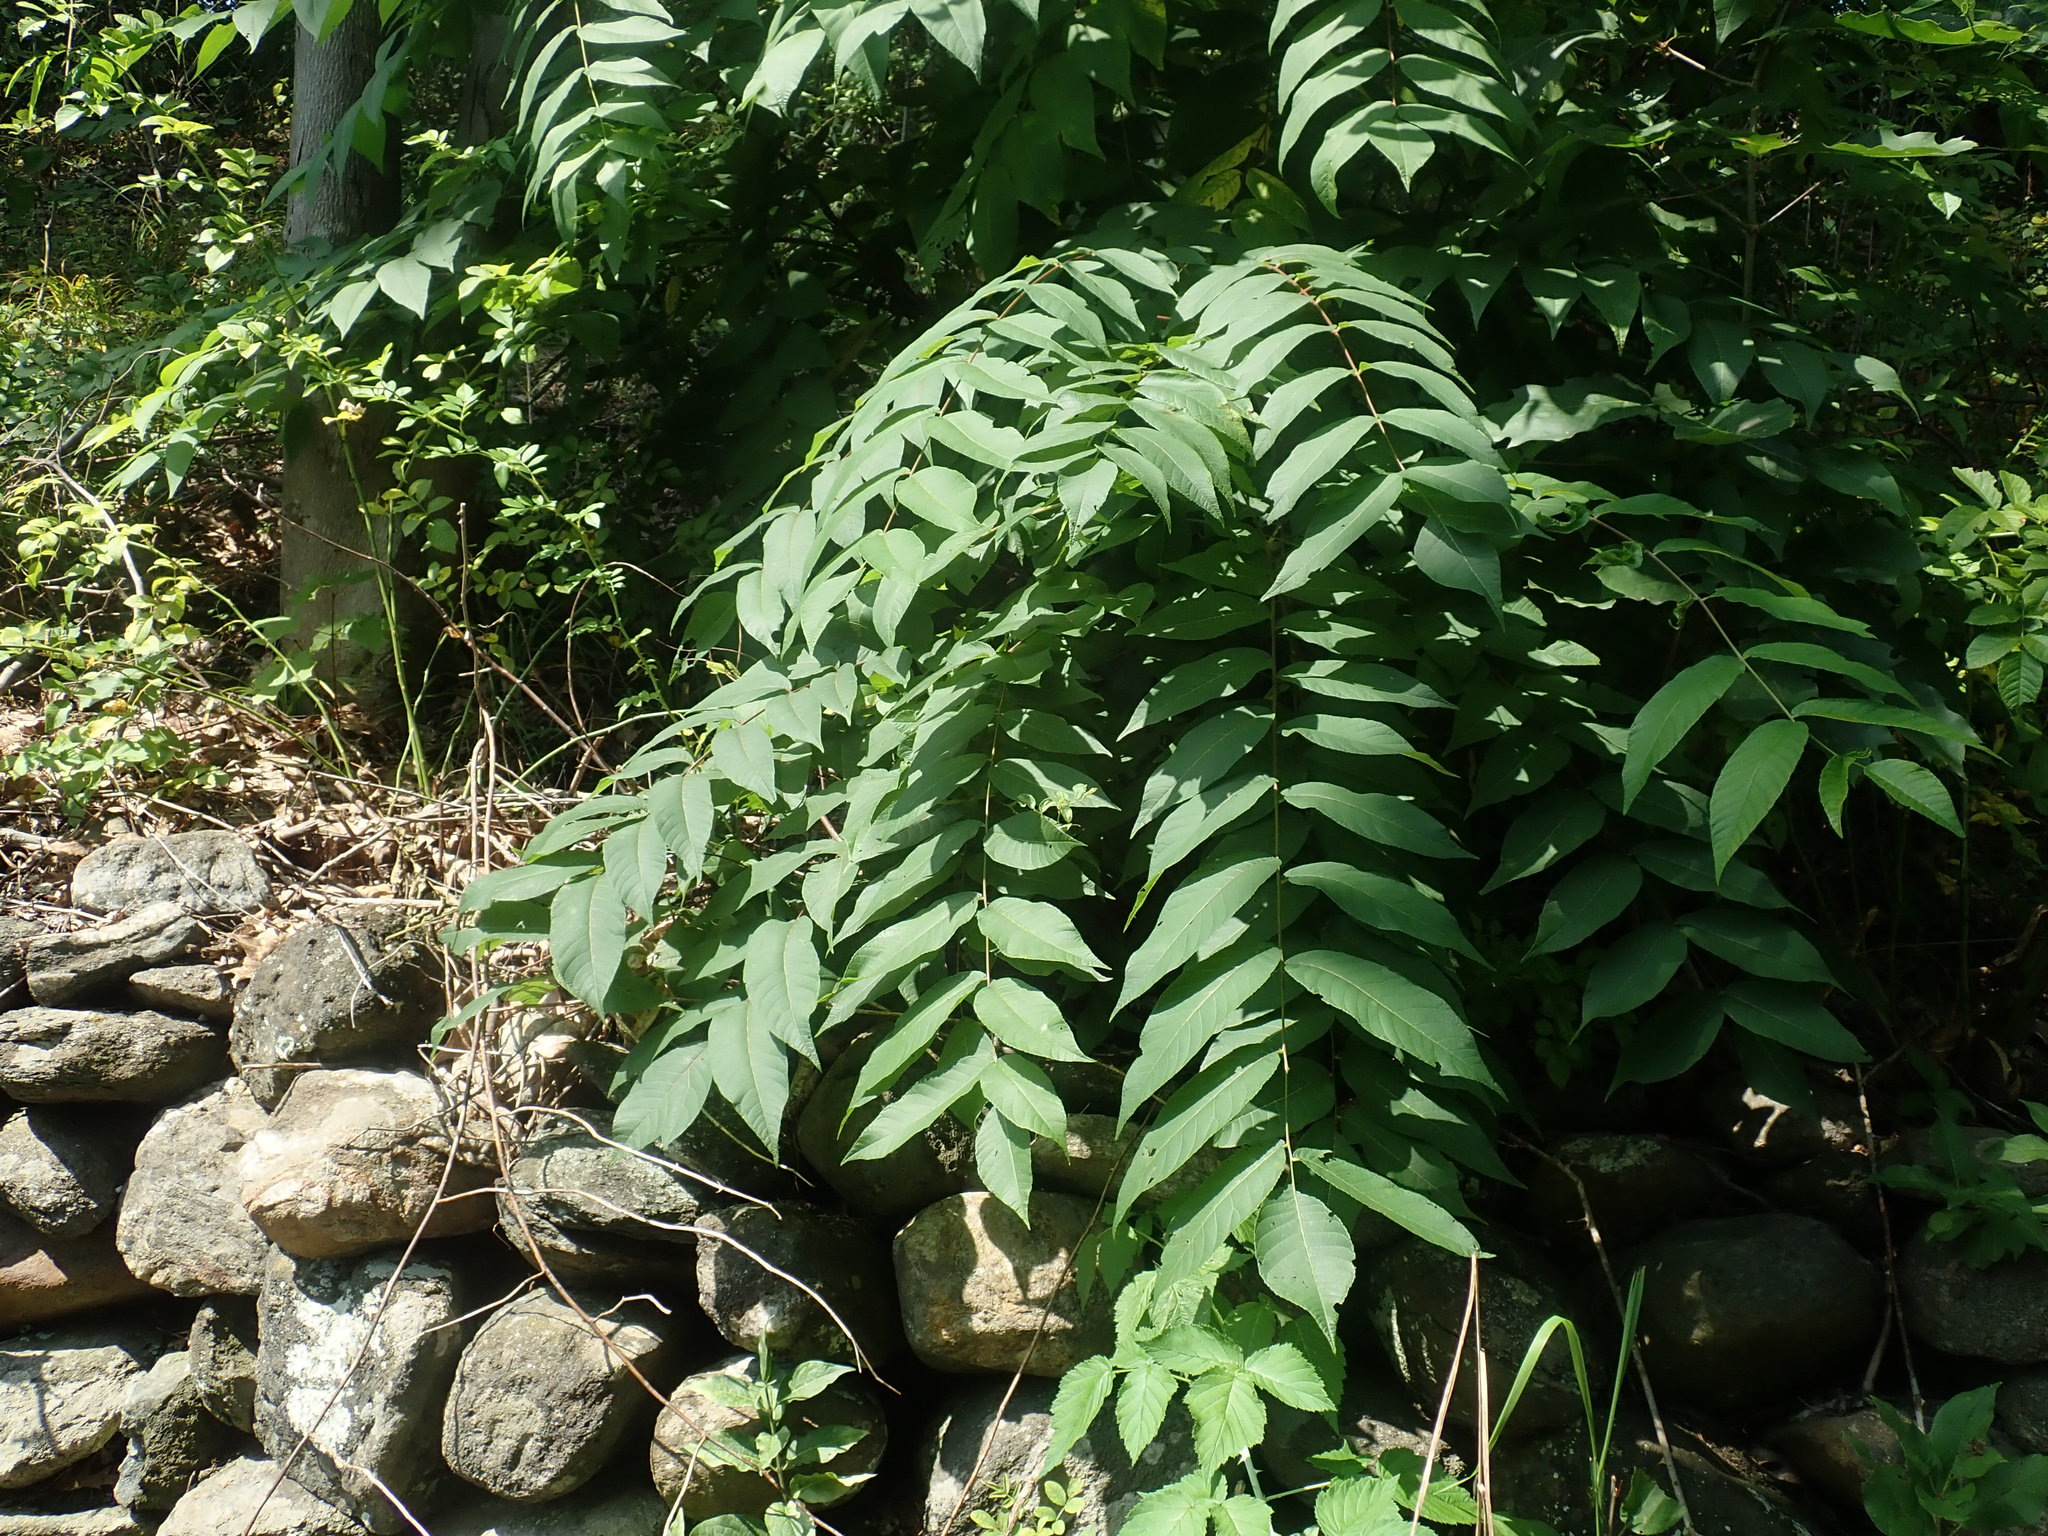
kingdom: Plantae
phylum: Tracheophyta
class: Magnoliopsida
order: Fagales
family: Juglandaceae
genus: Juglans
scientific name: Juglans cinerea
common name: Butternut
